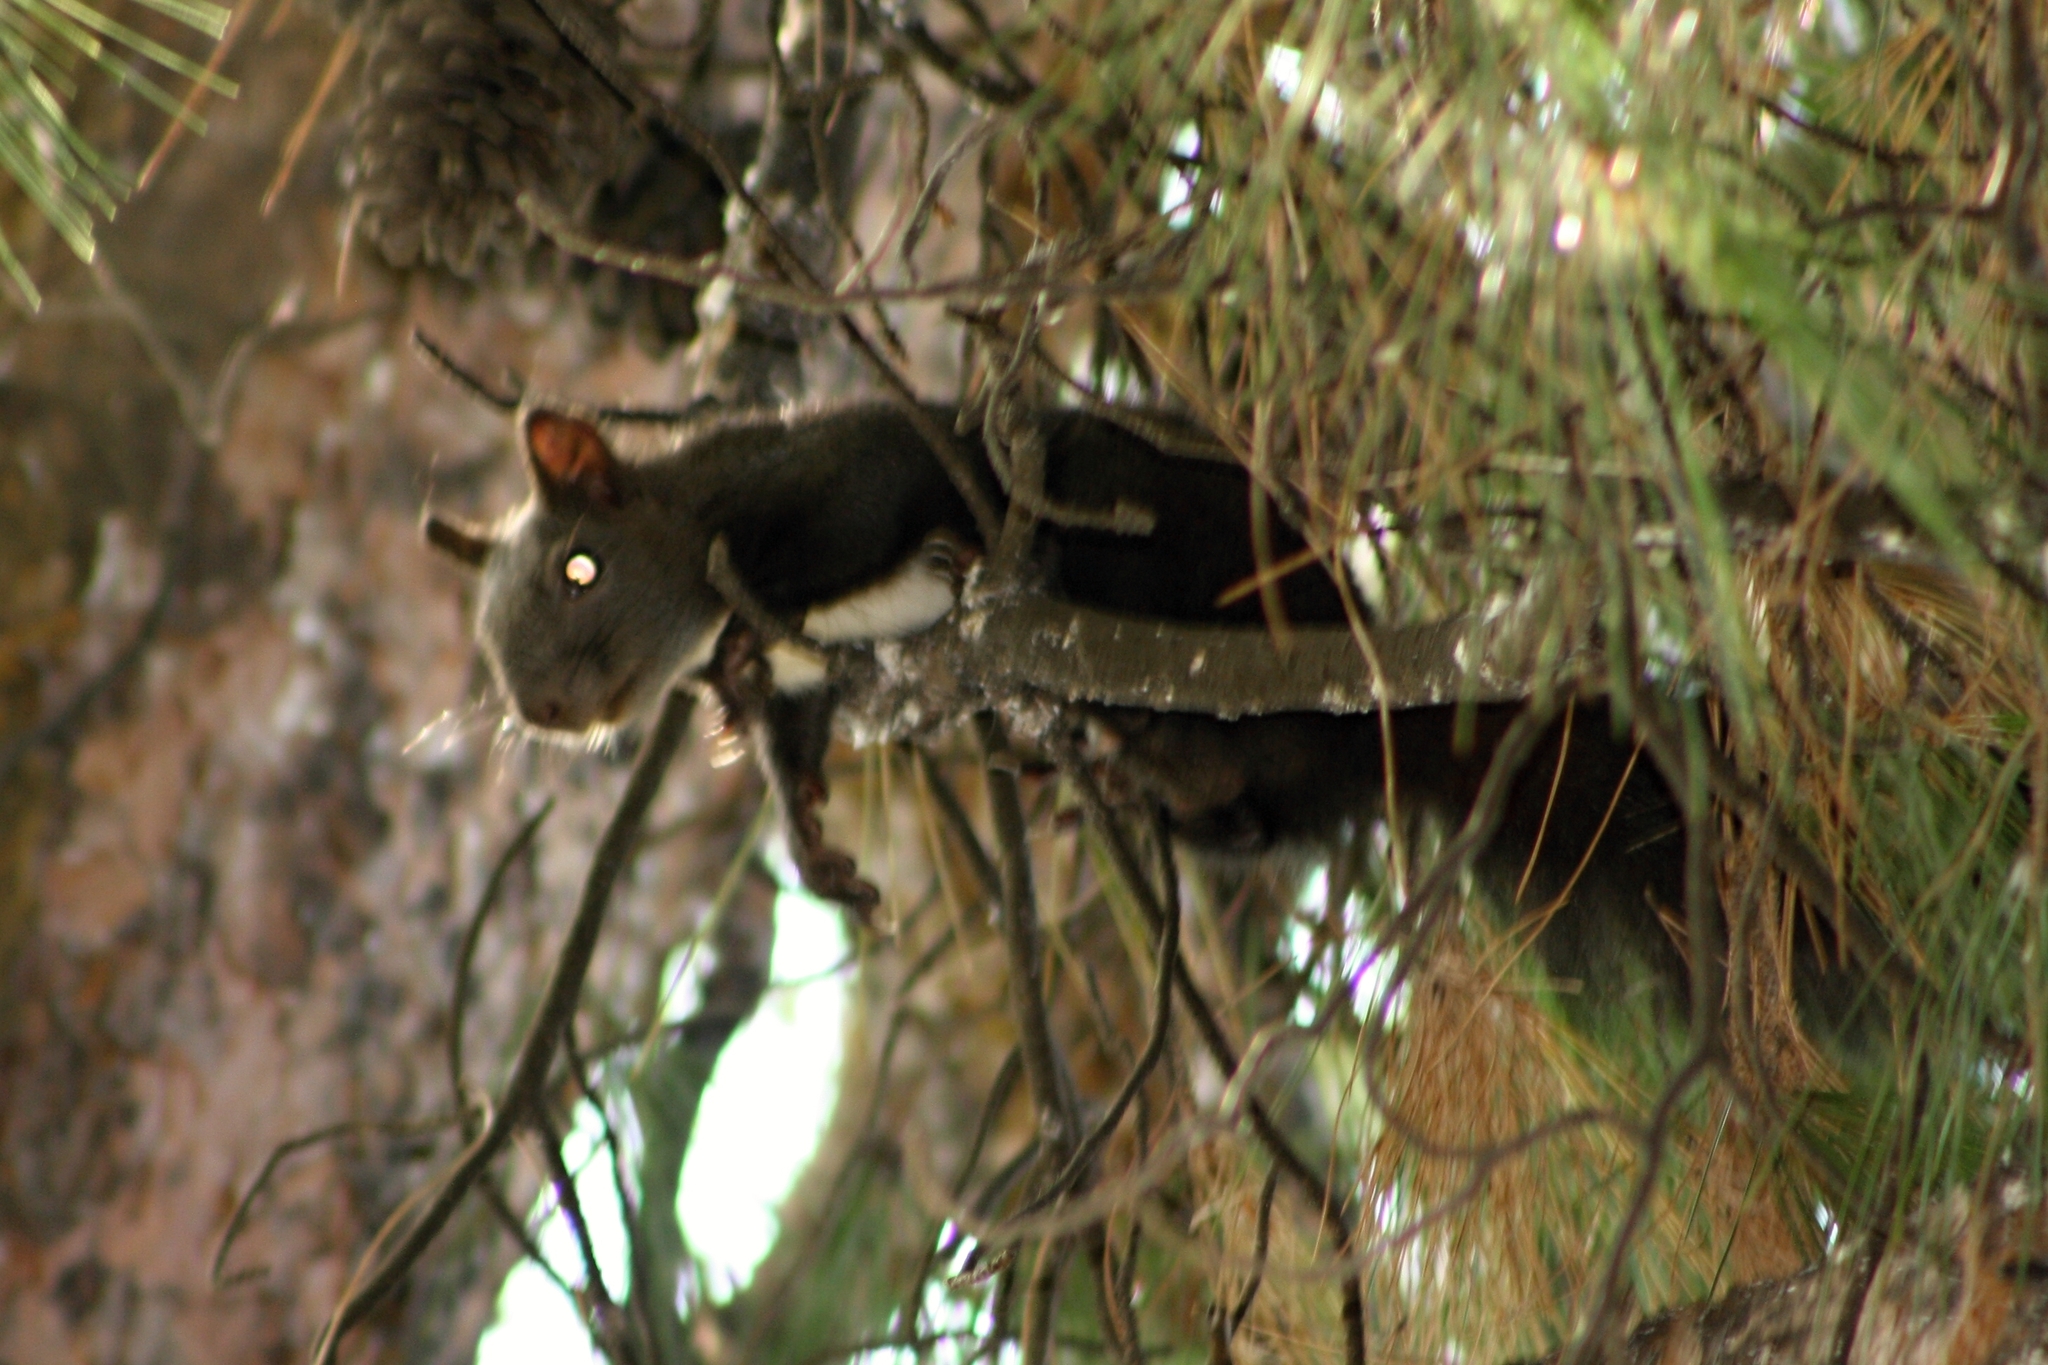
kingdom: Animalia
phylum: Chordata
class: Mammalia
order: Rodentia
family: Sciuridae
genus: Sciurus
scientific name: Sciurus vulgaris
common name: Eurasian red squirrel
